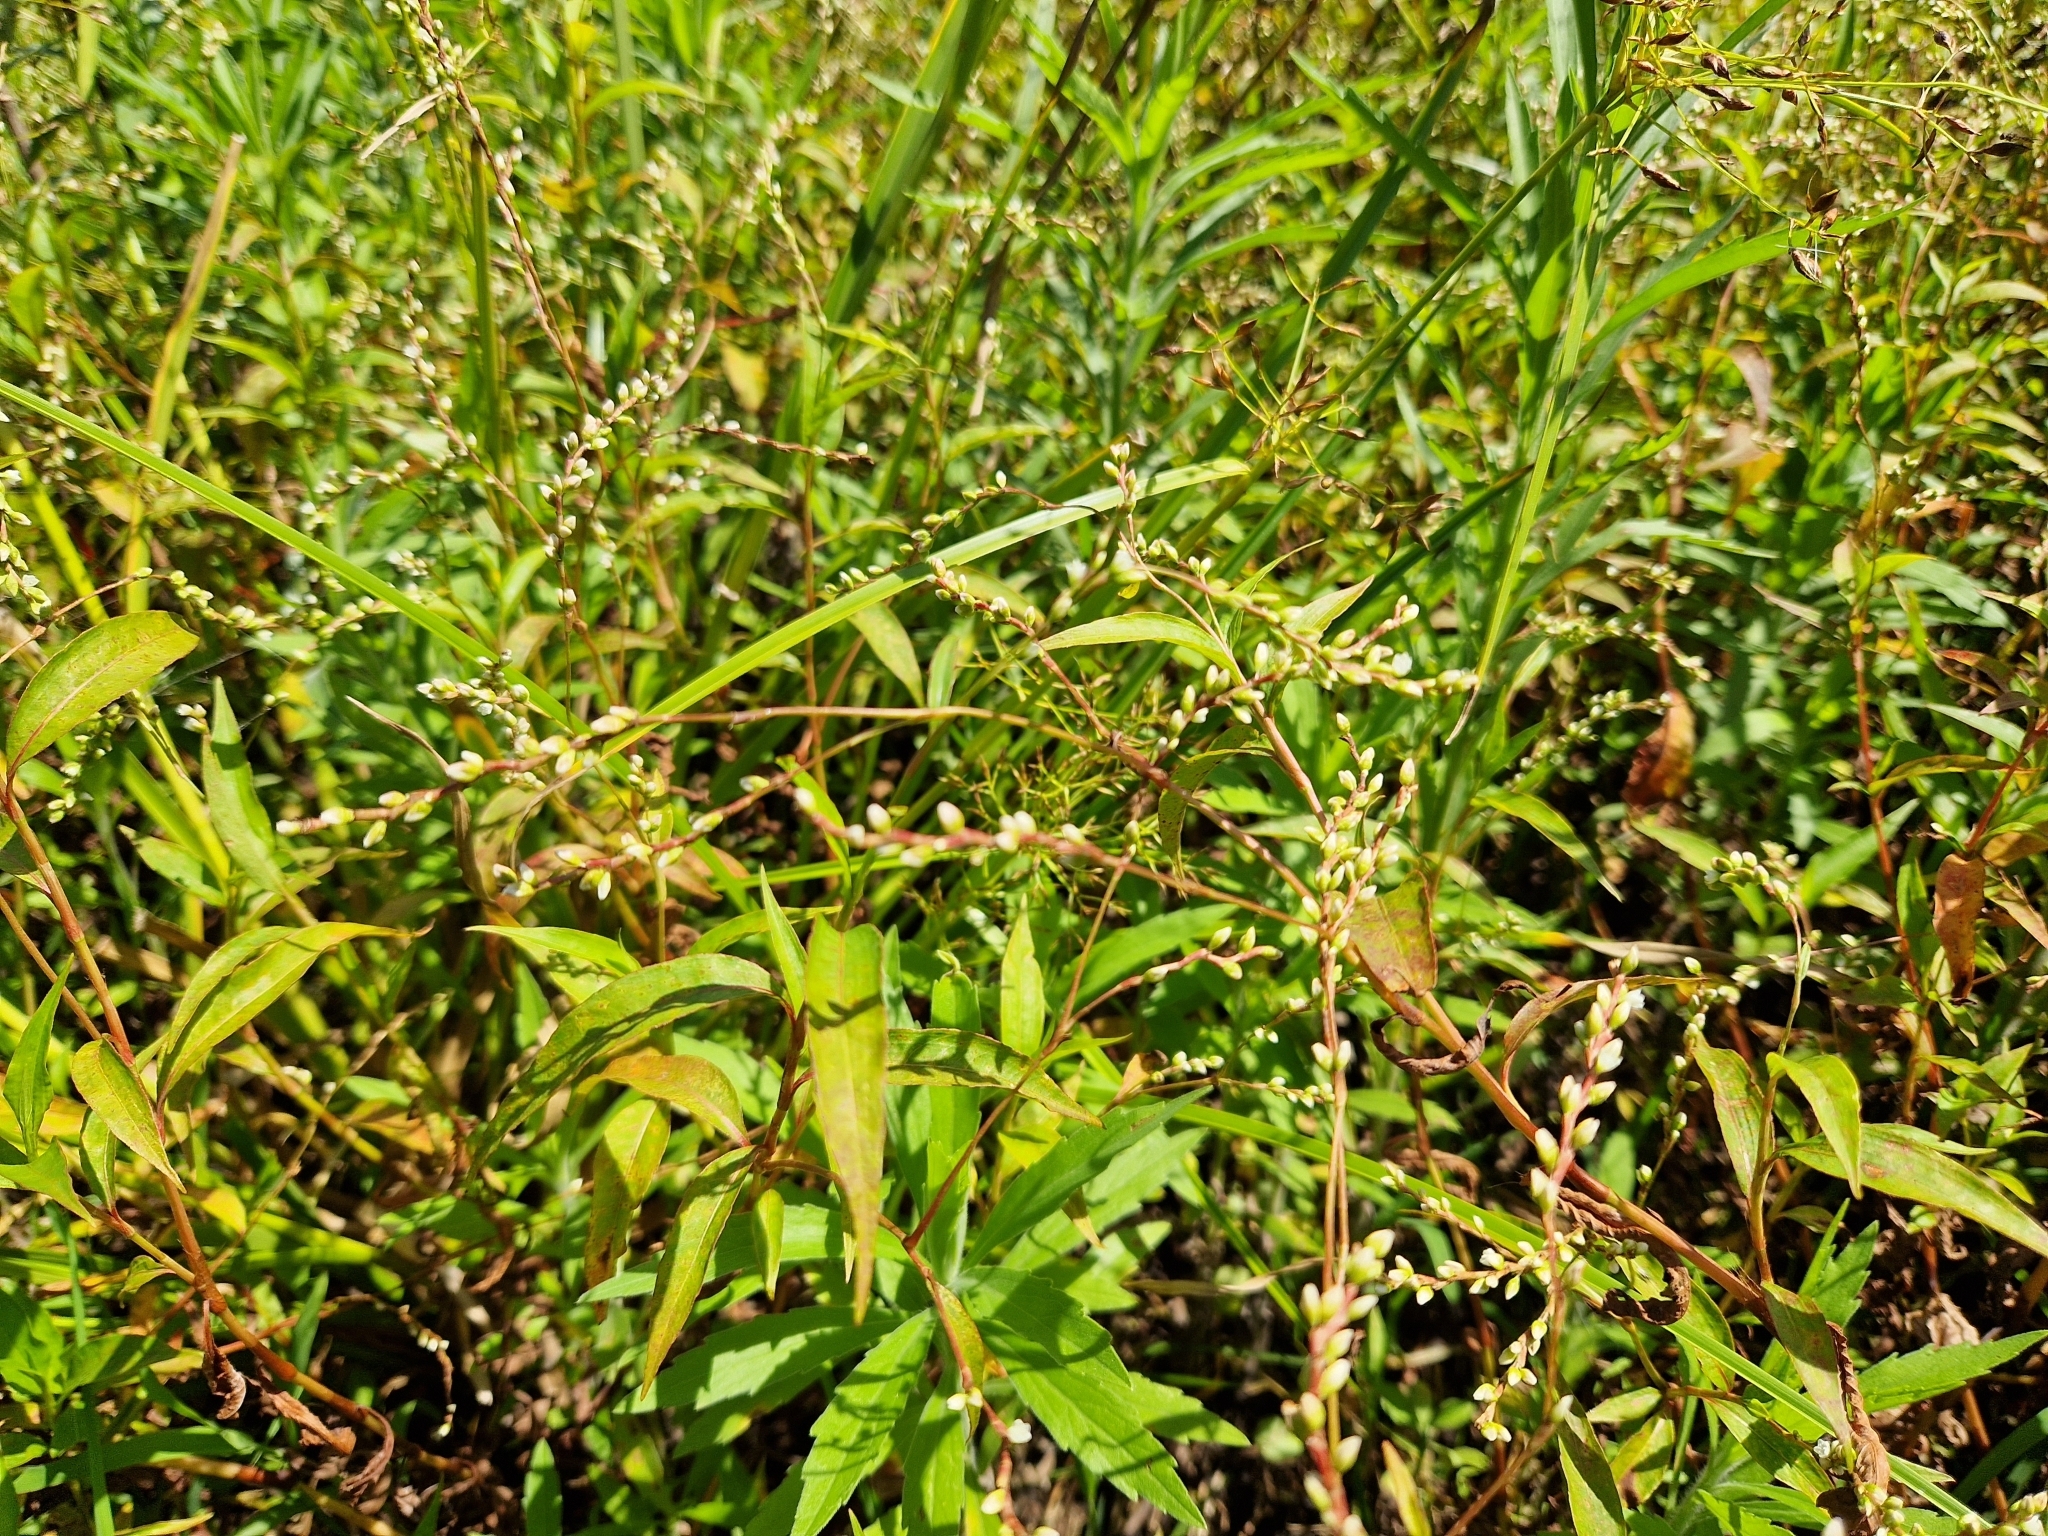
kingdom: Plantae
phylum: Tracheophyta
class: Magnoliopsida
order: Caryophyllales
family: Polygonaceae
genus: Persicaria
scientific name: Persicaria punctata
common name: Dotted smartweed
